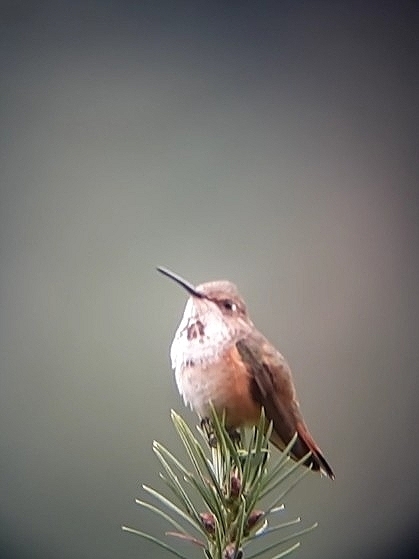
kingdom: Animalia
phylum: Chordata
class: Aves
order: Apodiformes
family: Trochilidae
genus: Selasphorus
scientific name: Selasphorus rufus
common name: Rufous hummingbird
